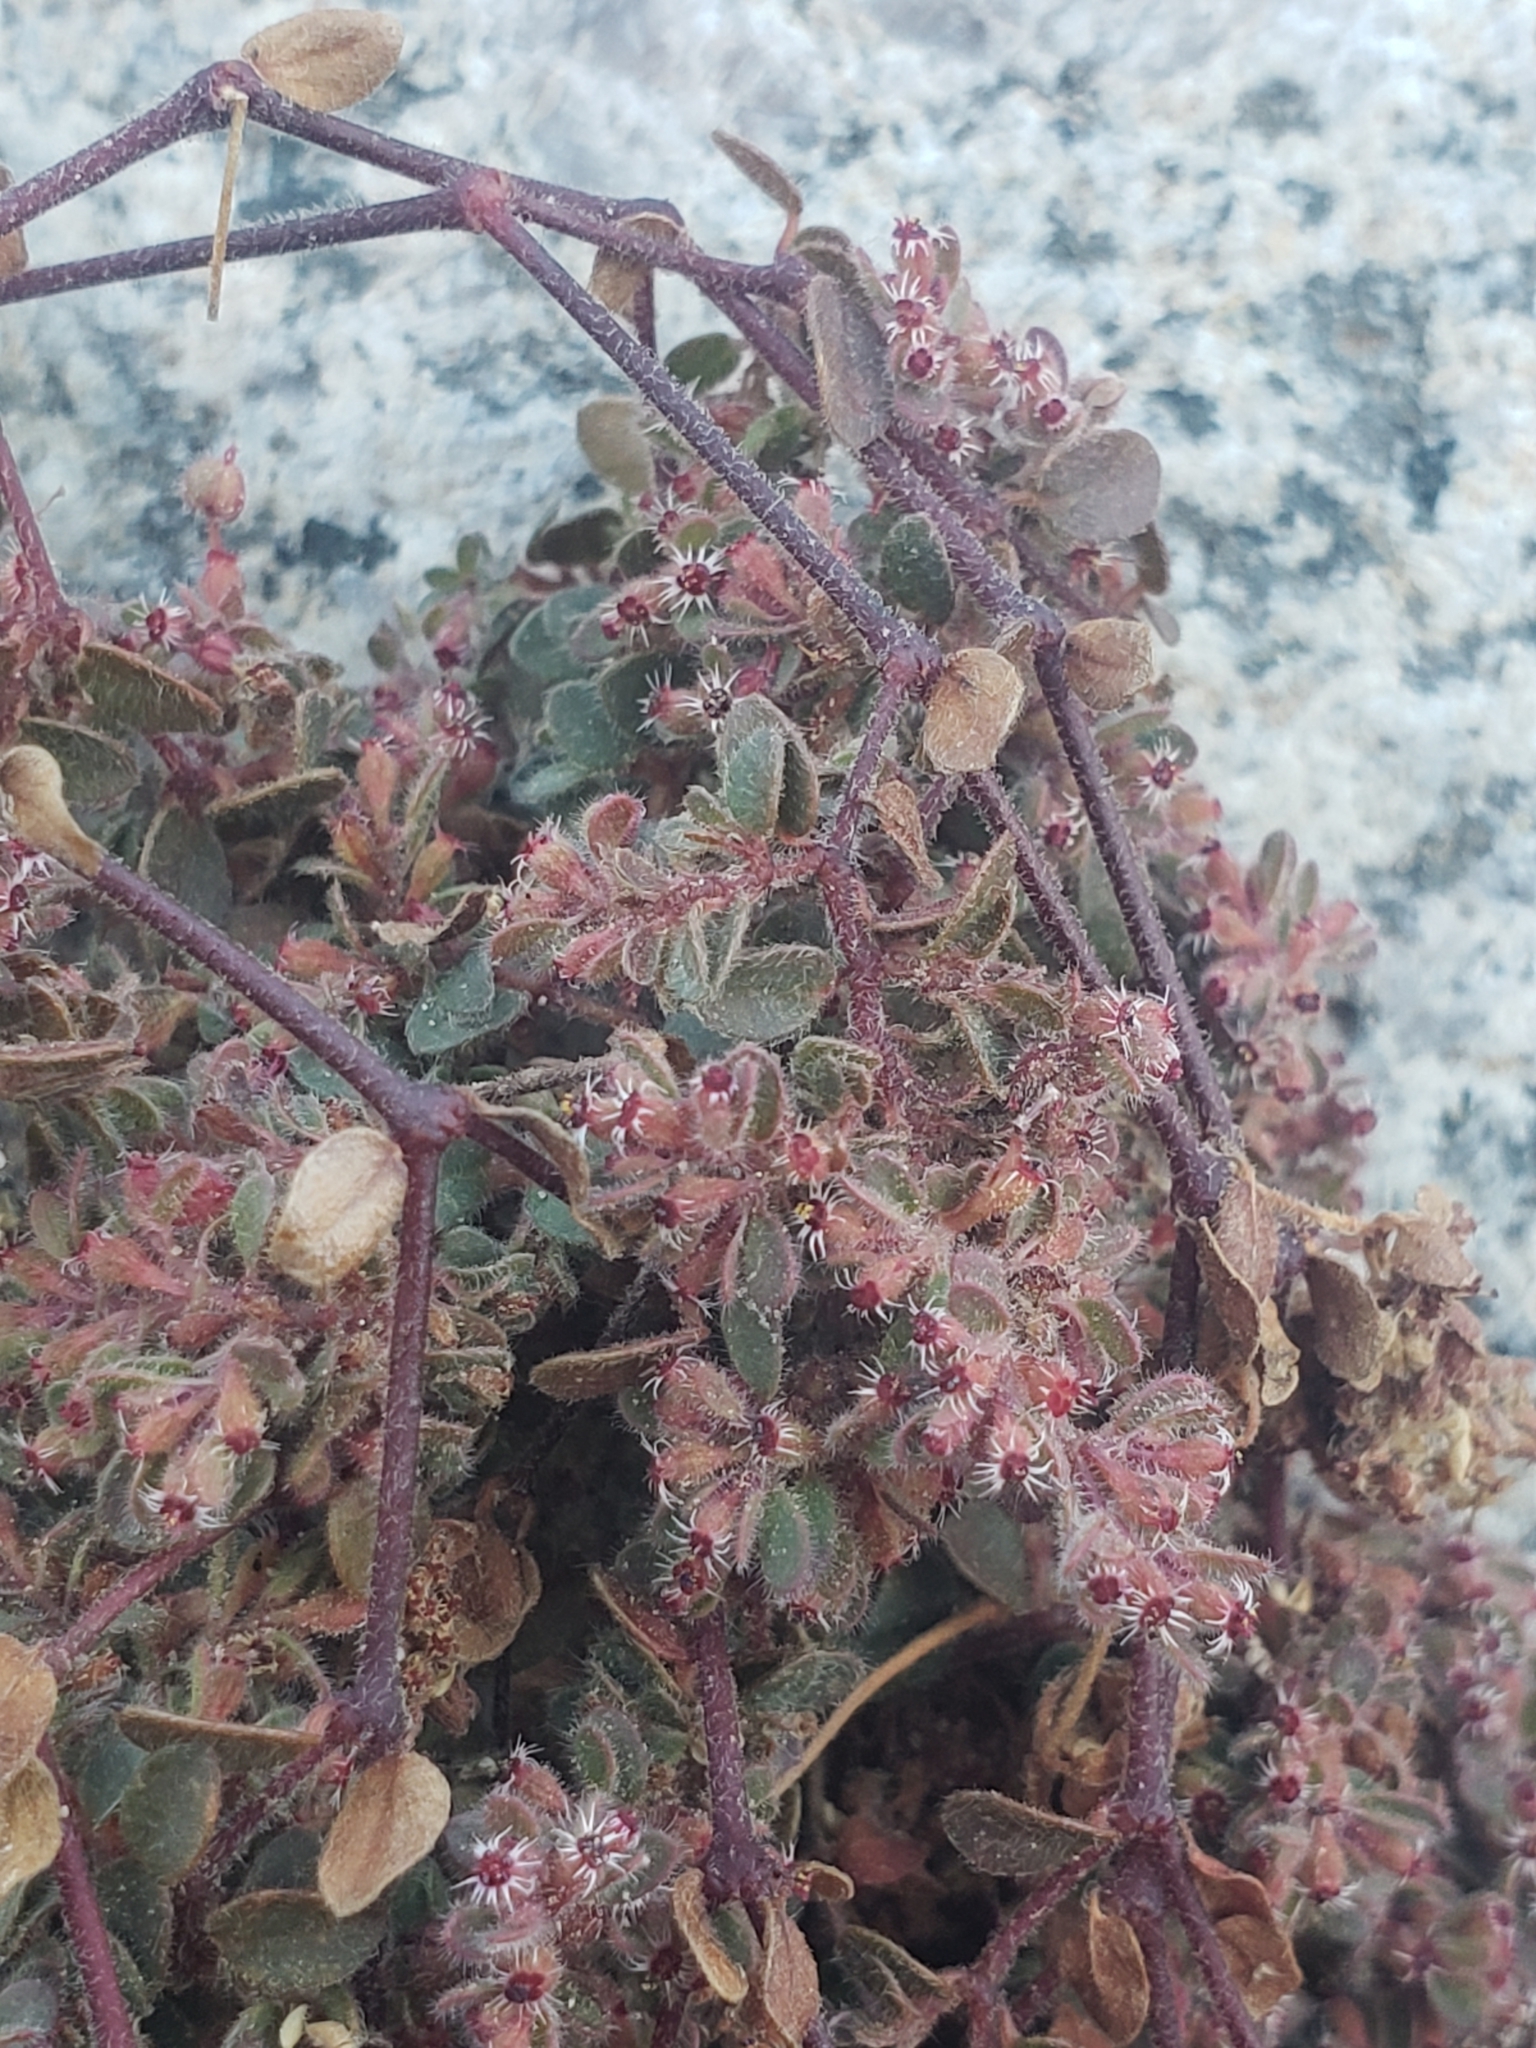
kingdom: Plantae
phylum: Tracheophyta
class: Magnoliopsida
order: Malpighiales
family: Euphorbiaceae
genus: Euphorbia
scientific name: Euphorbia setiloba
